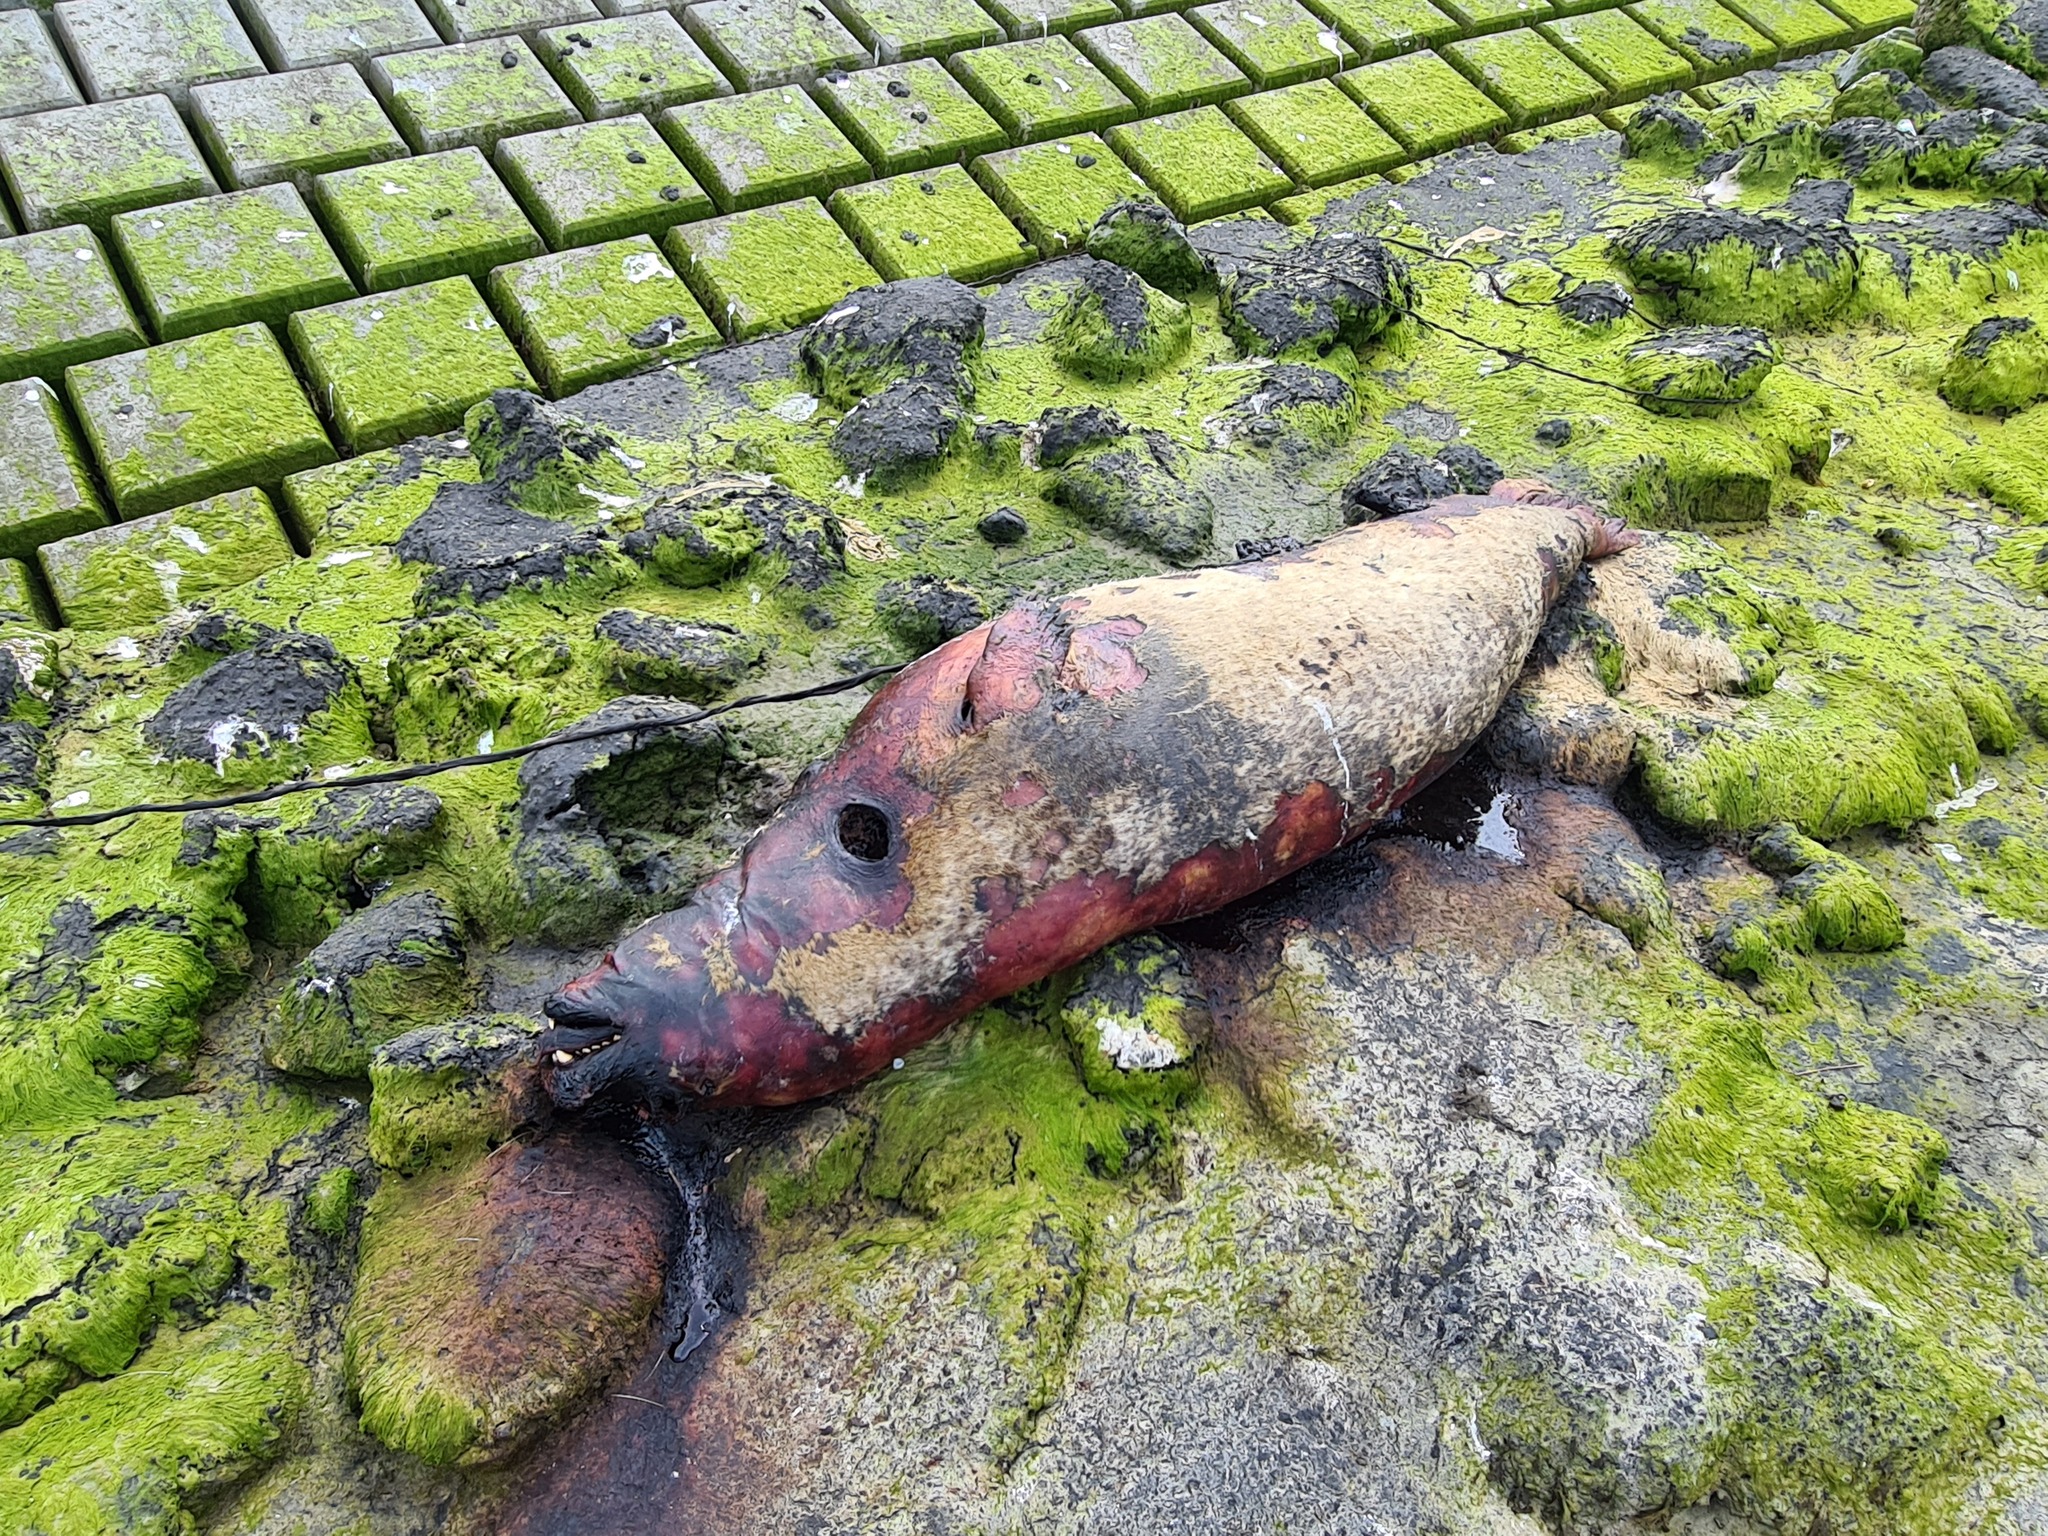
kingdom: Animalia
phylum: Chordata
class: Mammalia
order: Carnivora
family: Phocidae
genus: Phoca
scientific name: Phoca vitulina
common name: Harbor seal
